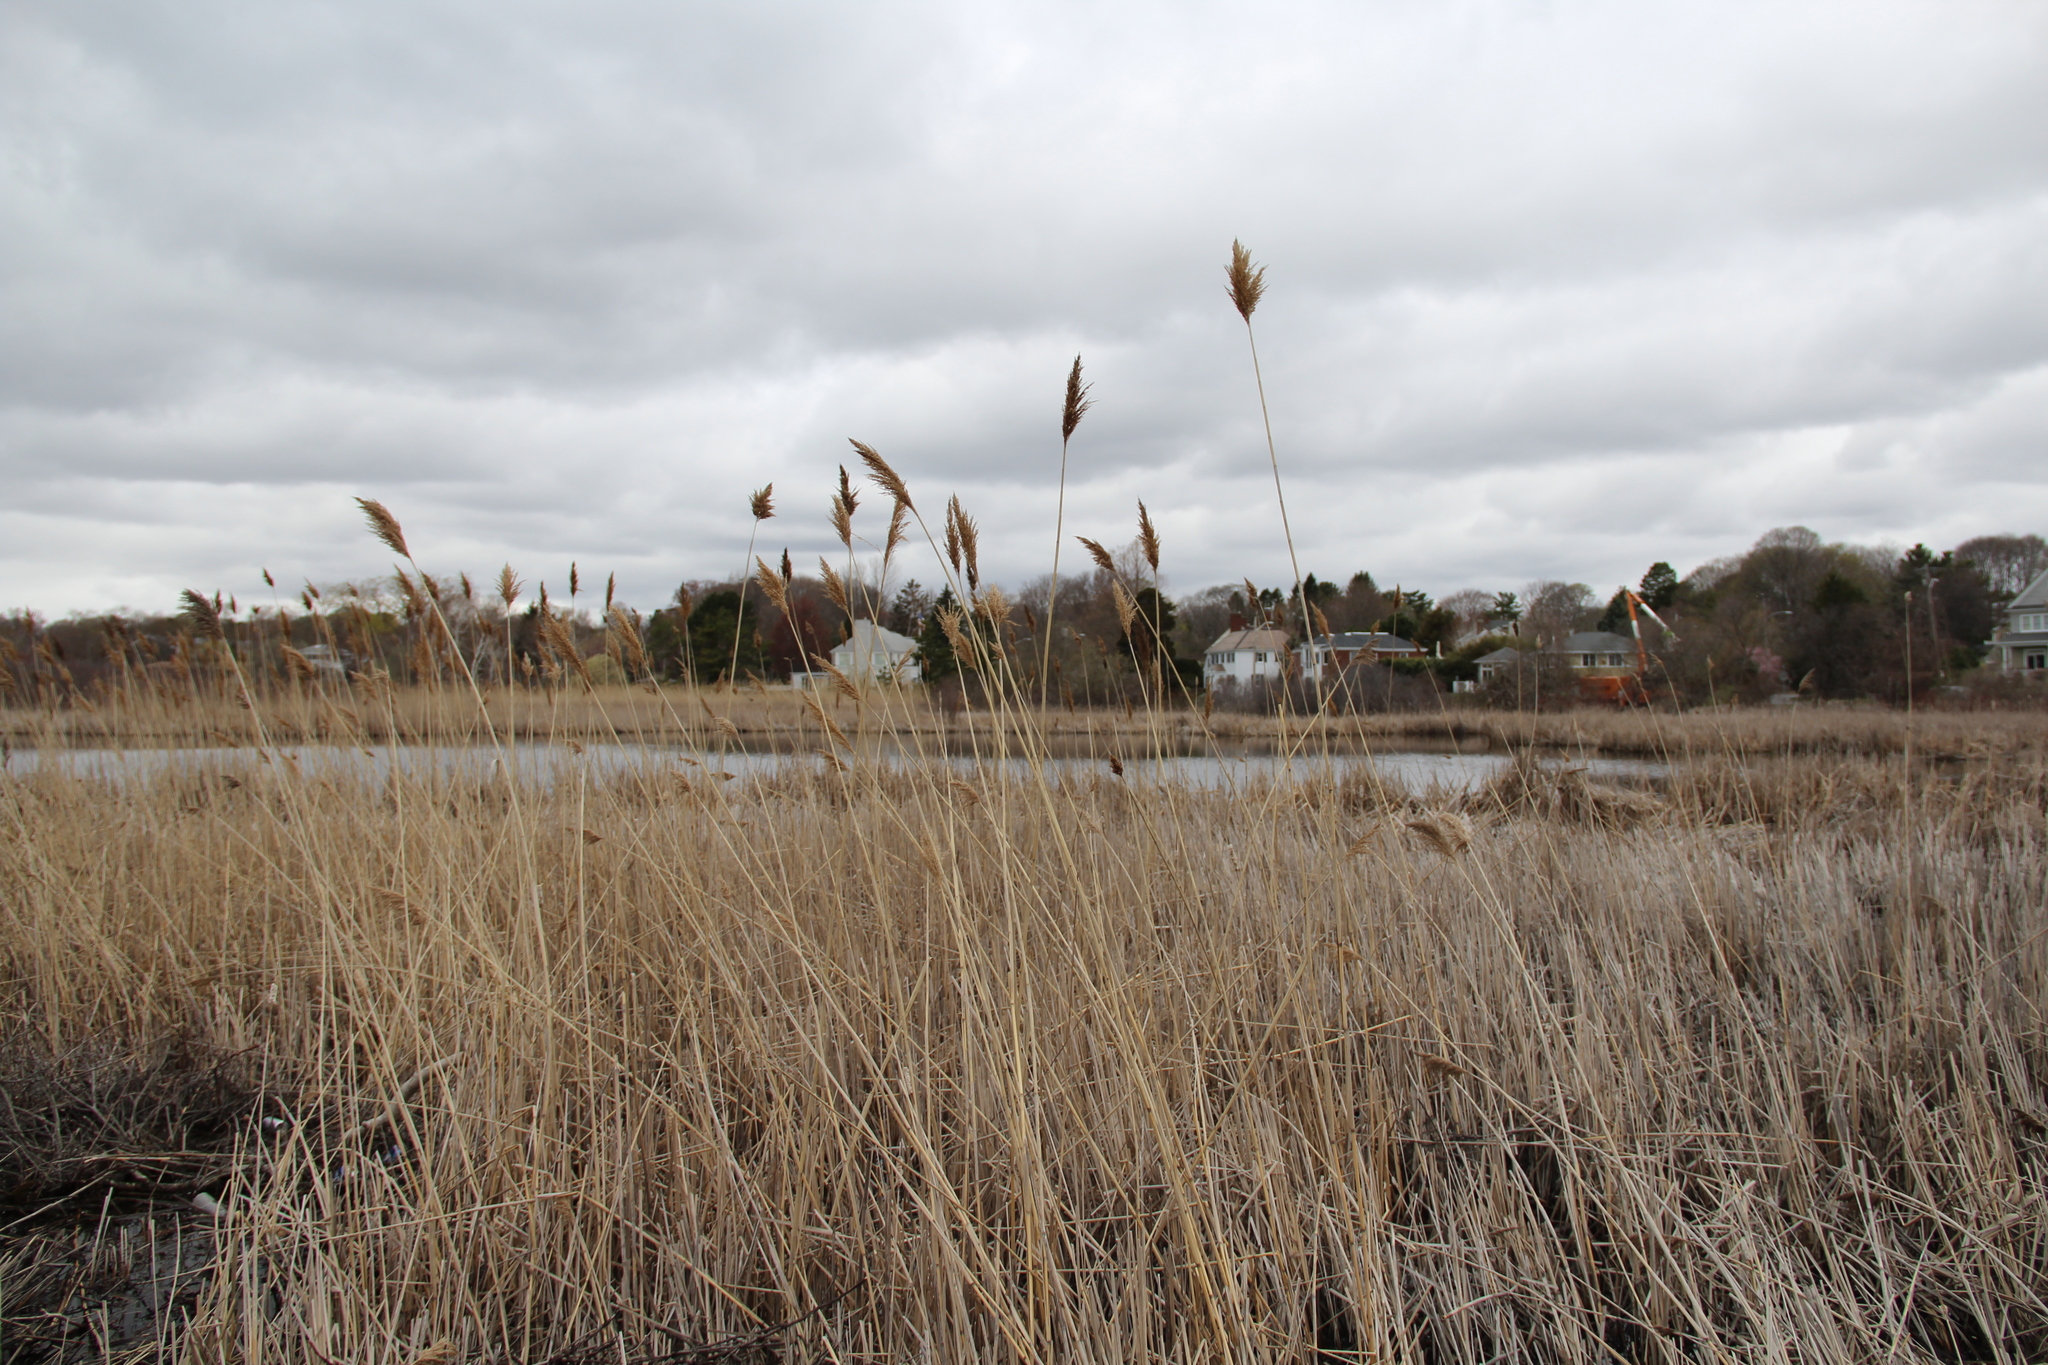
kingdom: Plantae
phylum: Tracheophyta
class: Liliopsida
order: Poales
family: Poaceae
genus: Phragmites
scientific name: Phragmites australis
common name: Common reed
